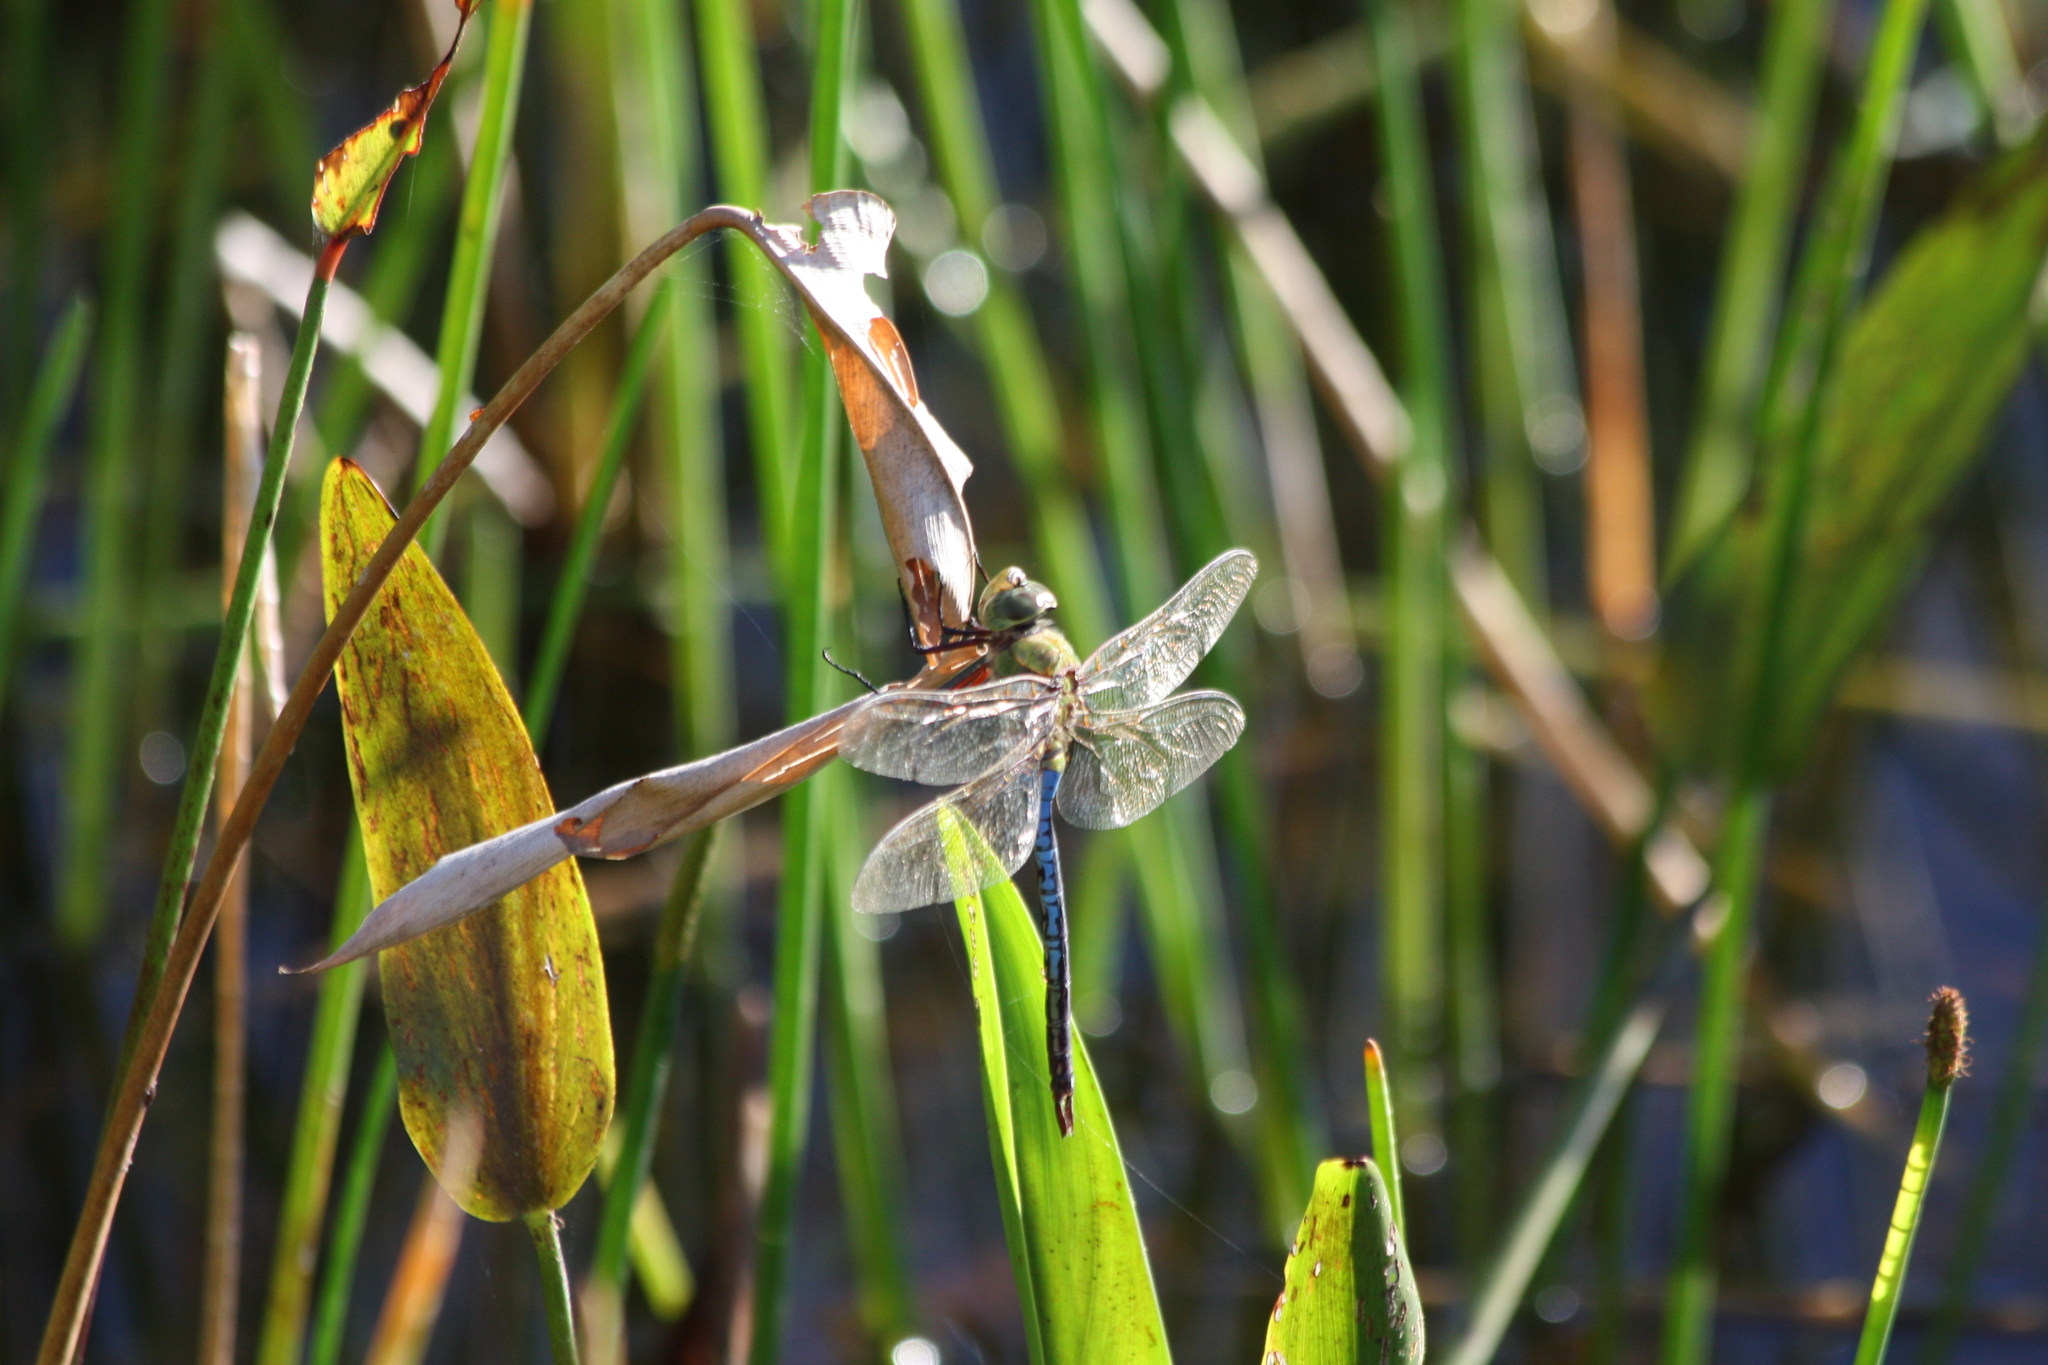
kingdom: Animalia
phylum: Arthropoda
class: Insecta
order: Odonata
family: Aeshnidae
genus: Anax
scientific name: Anax junius
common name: Common green darner
